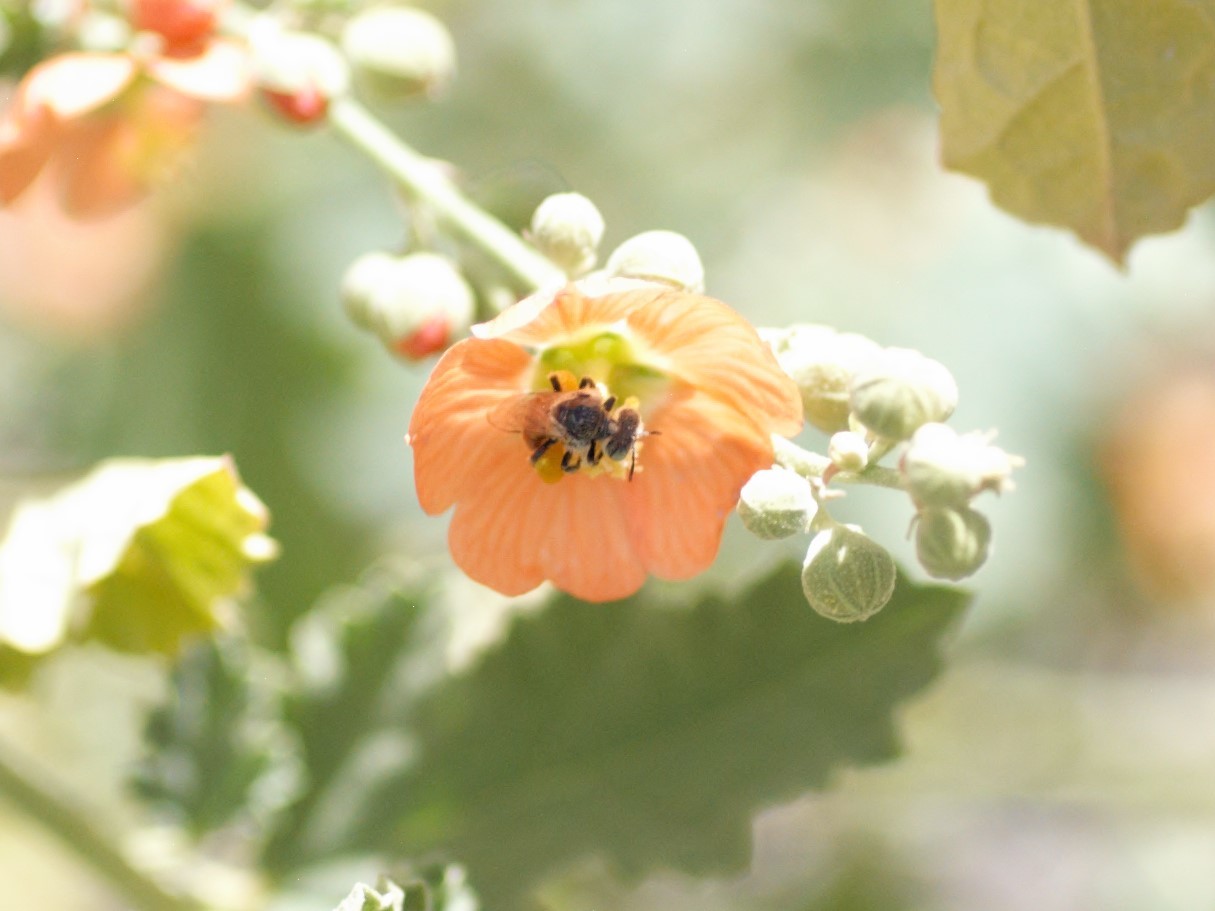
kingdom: Animalia
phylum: Arthropoda
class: Insecta
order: Hymenoptera
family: Andrenidae
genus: Calliopsis
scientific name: Calliopsis subalpina
